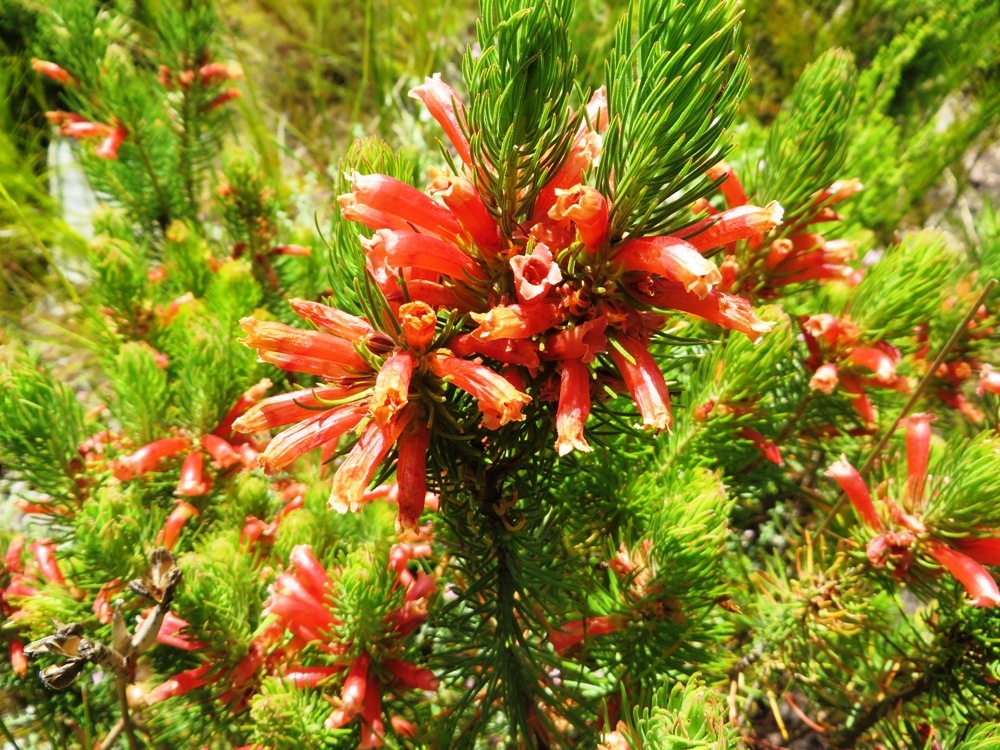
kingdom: Plantae
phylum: Tracheophyta
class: Magnoliopsida
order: Ericales
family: Ericaceae
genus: Erica
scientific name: Erica viscaria
